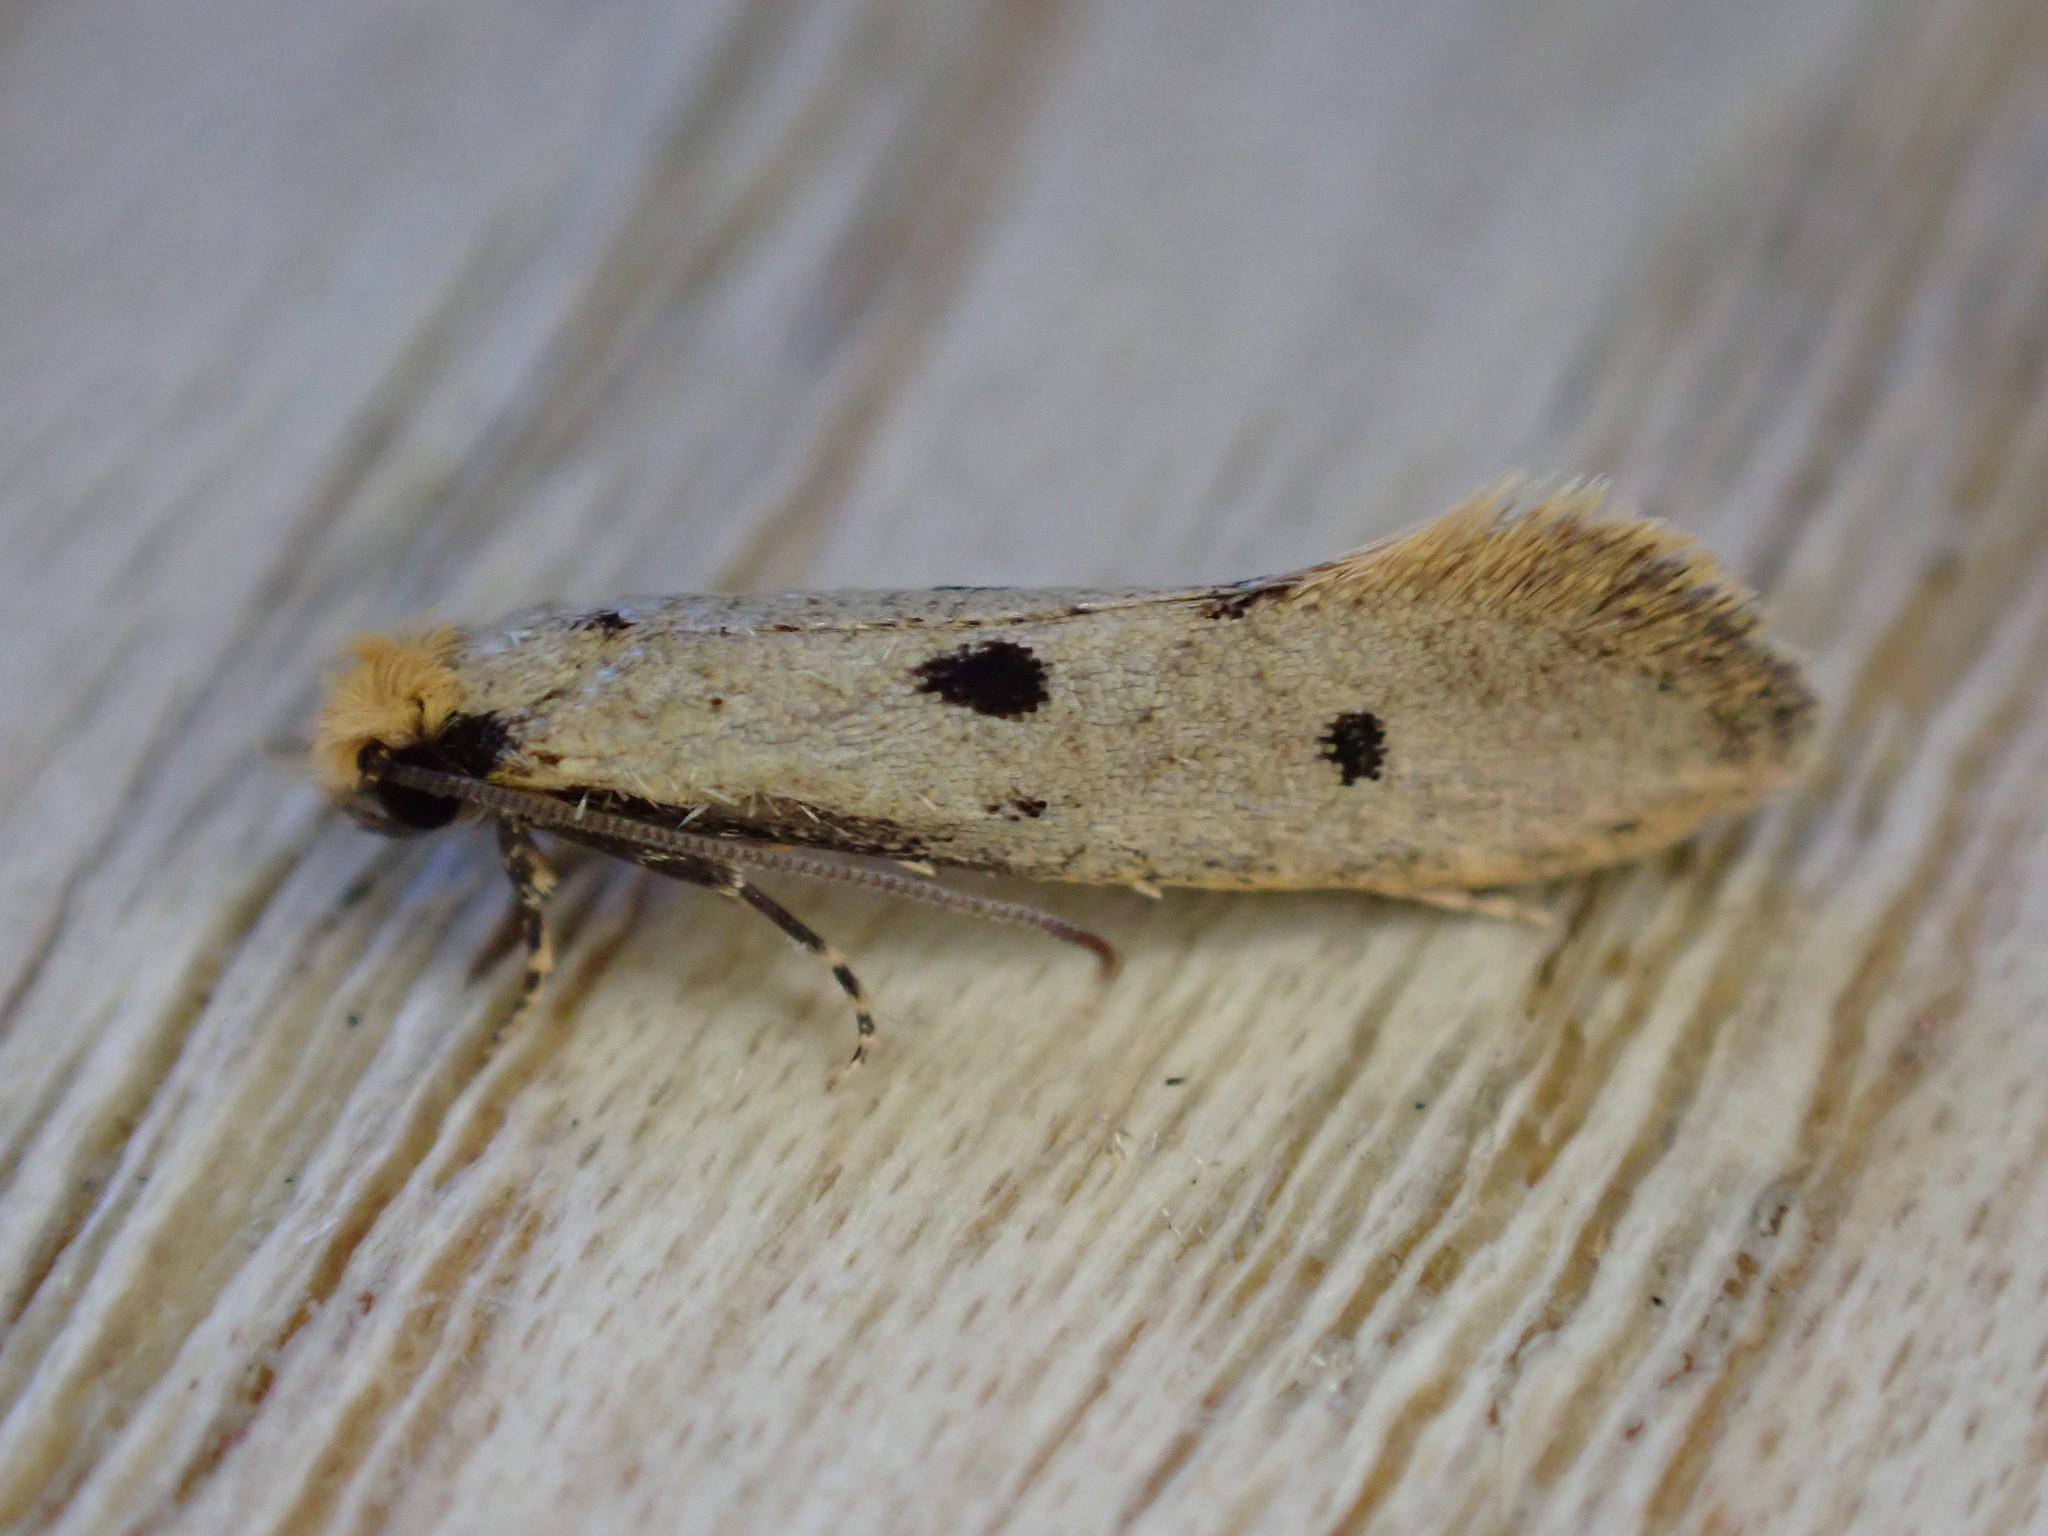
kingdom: Animalia
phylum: Arthropoda
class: Insecta
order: Lepidoptera
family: Tineidae
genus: Tinea
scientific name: Tinea trinotella
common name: Bird's-nest moth
